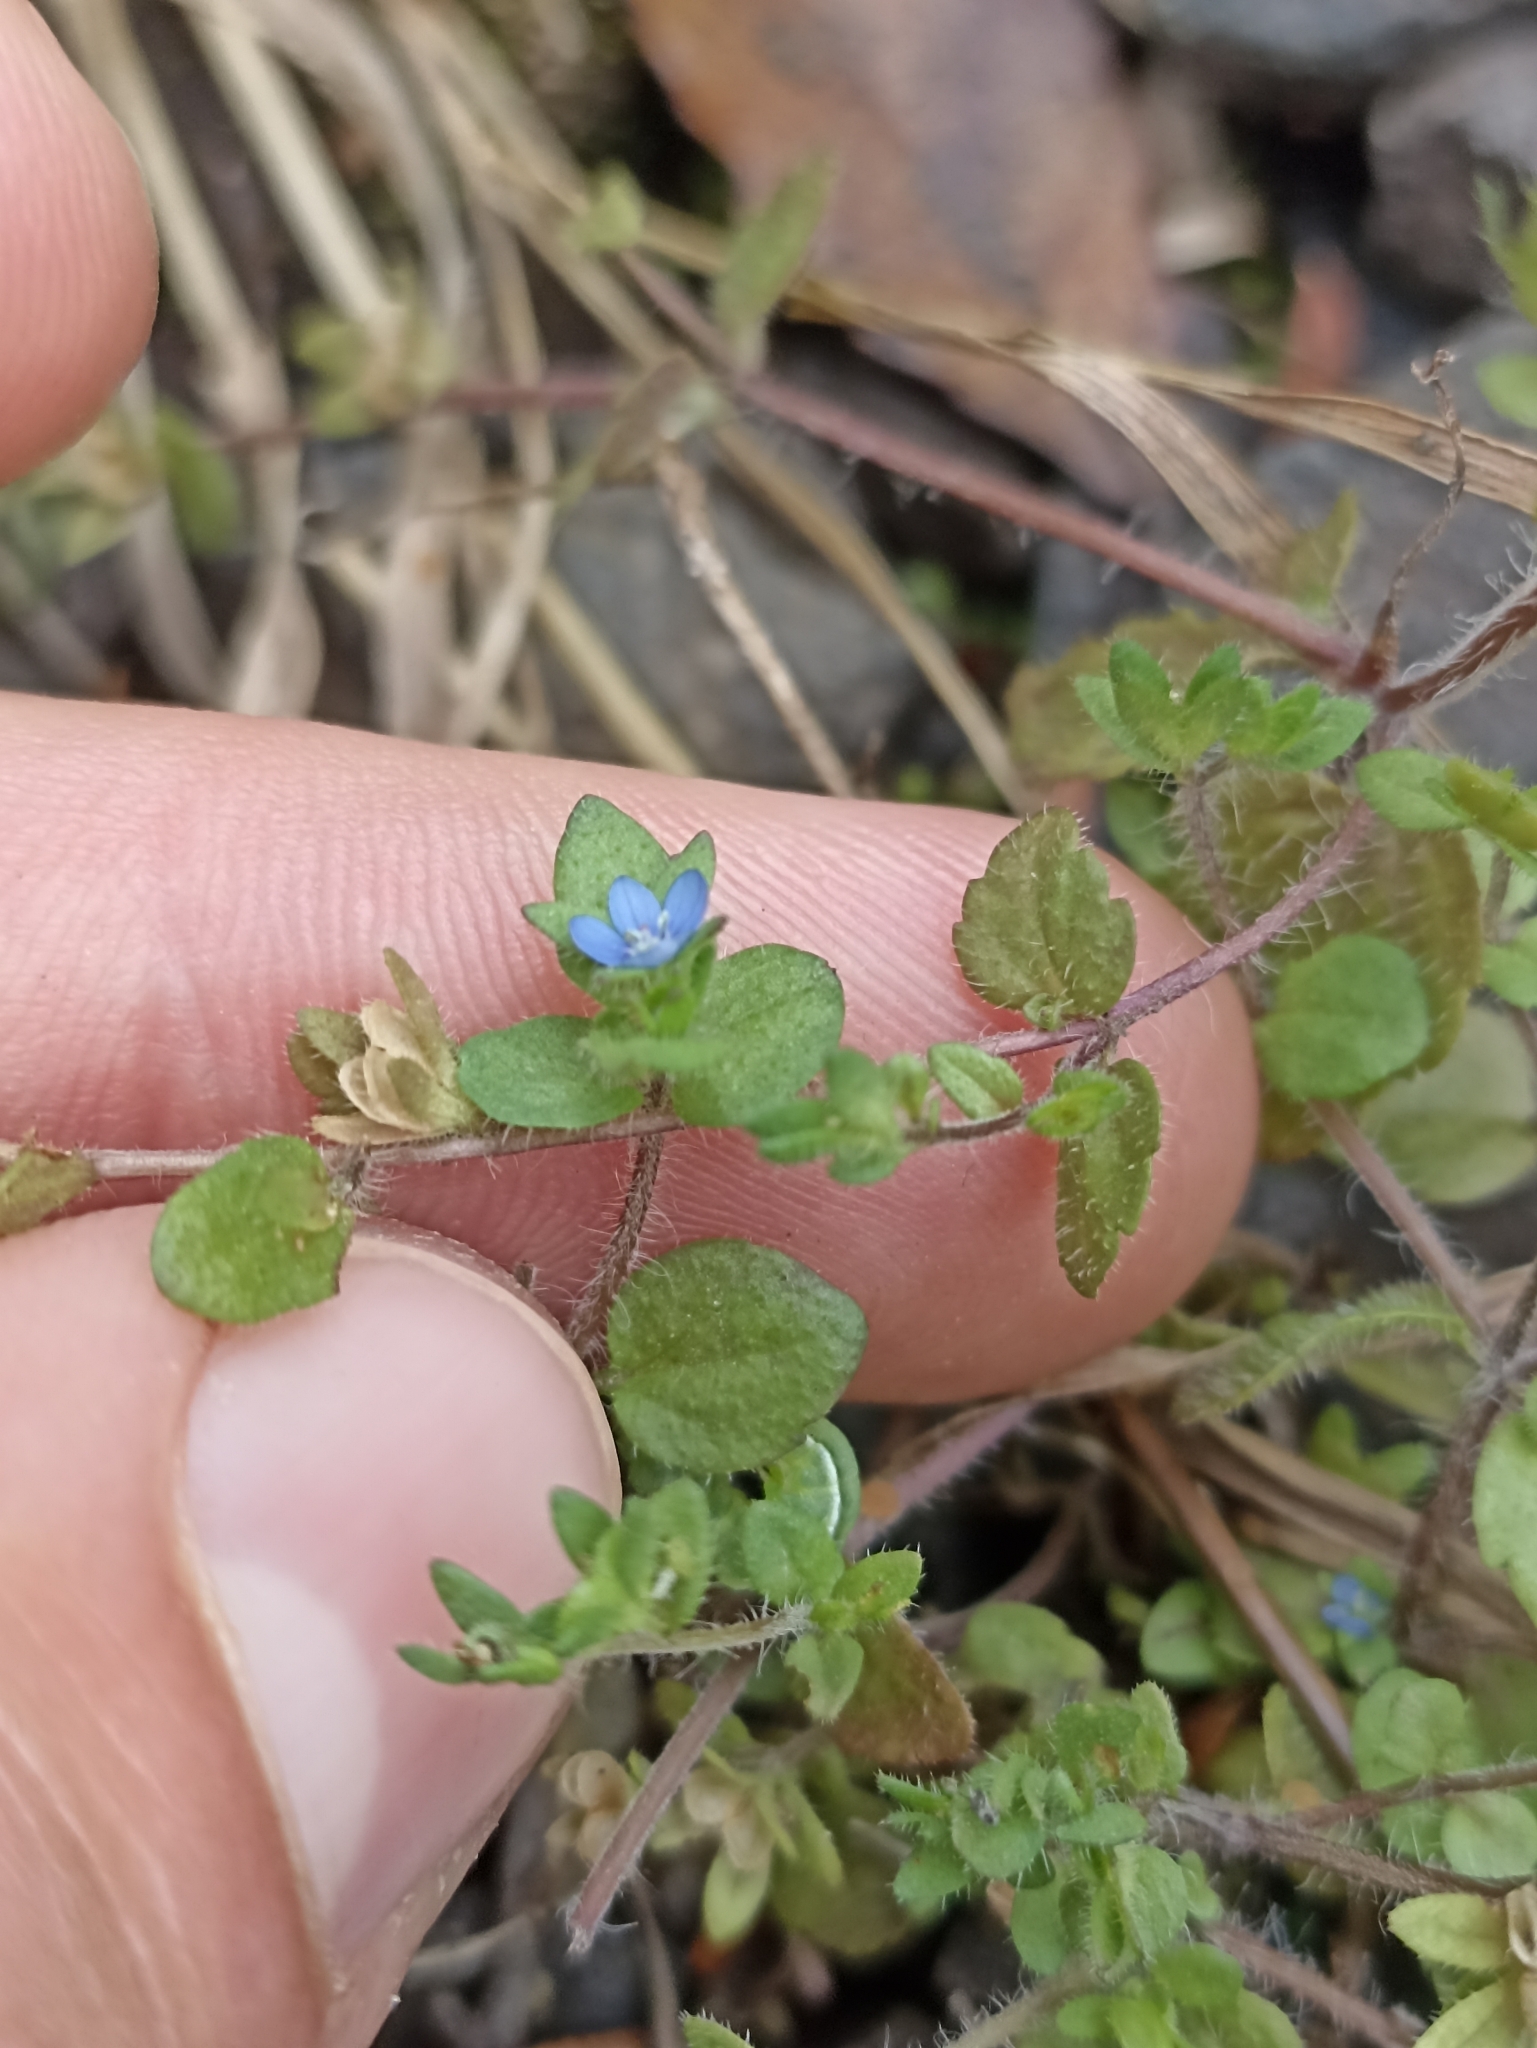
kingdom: Plantae
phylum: Tracheophyta
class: Magnoliopsida
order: Lamiales
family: Plantaginaceae
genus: Veronica
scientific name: Veronica arvensis
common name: Corn speedwell
